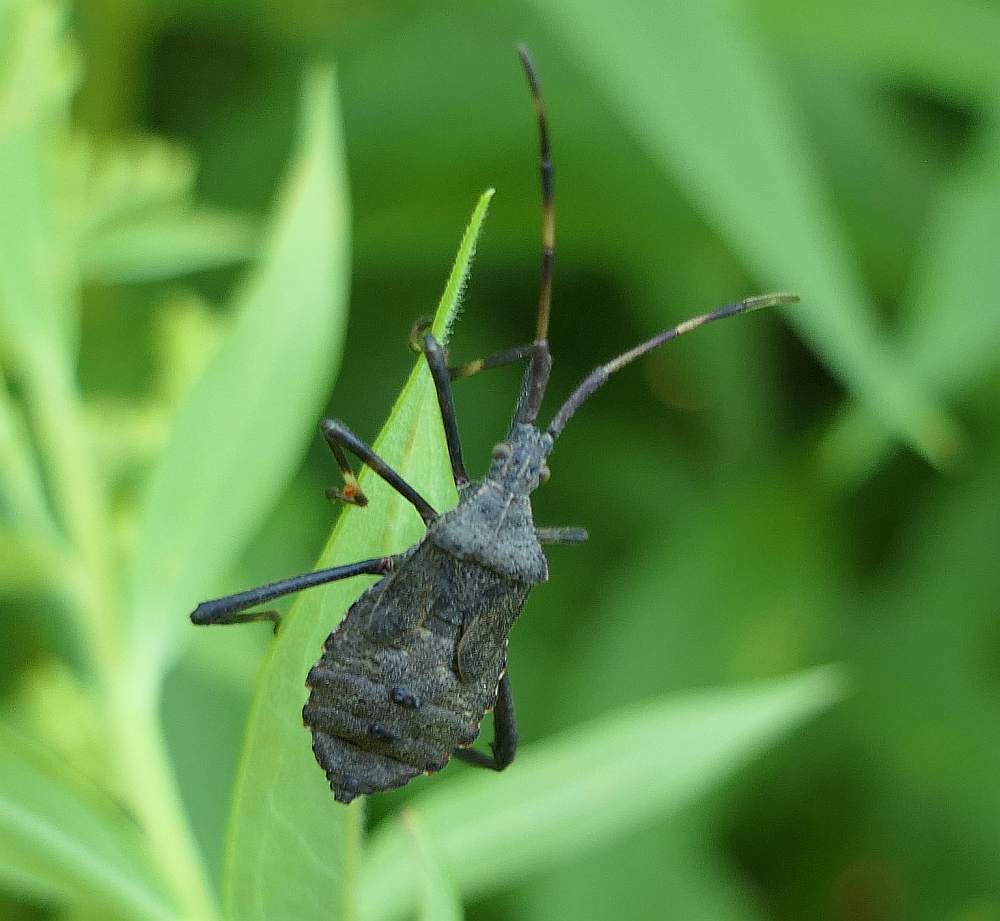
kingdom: Animalia
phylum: Arthropoda
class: Insecta
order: Hemiptera
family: Coreidae
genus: Acanthocephala
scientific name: Acanthocephala terminalis
